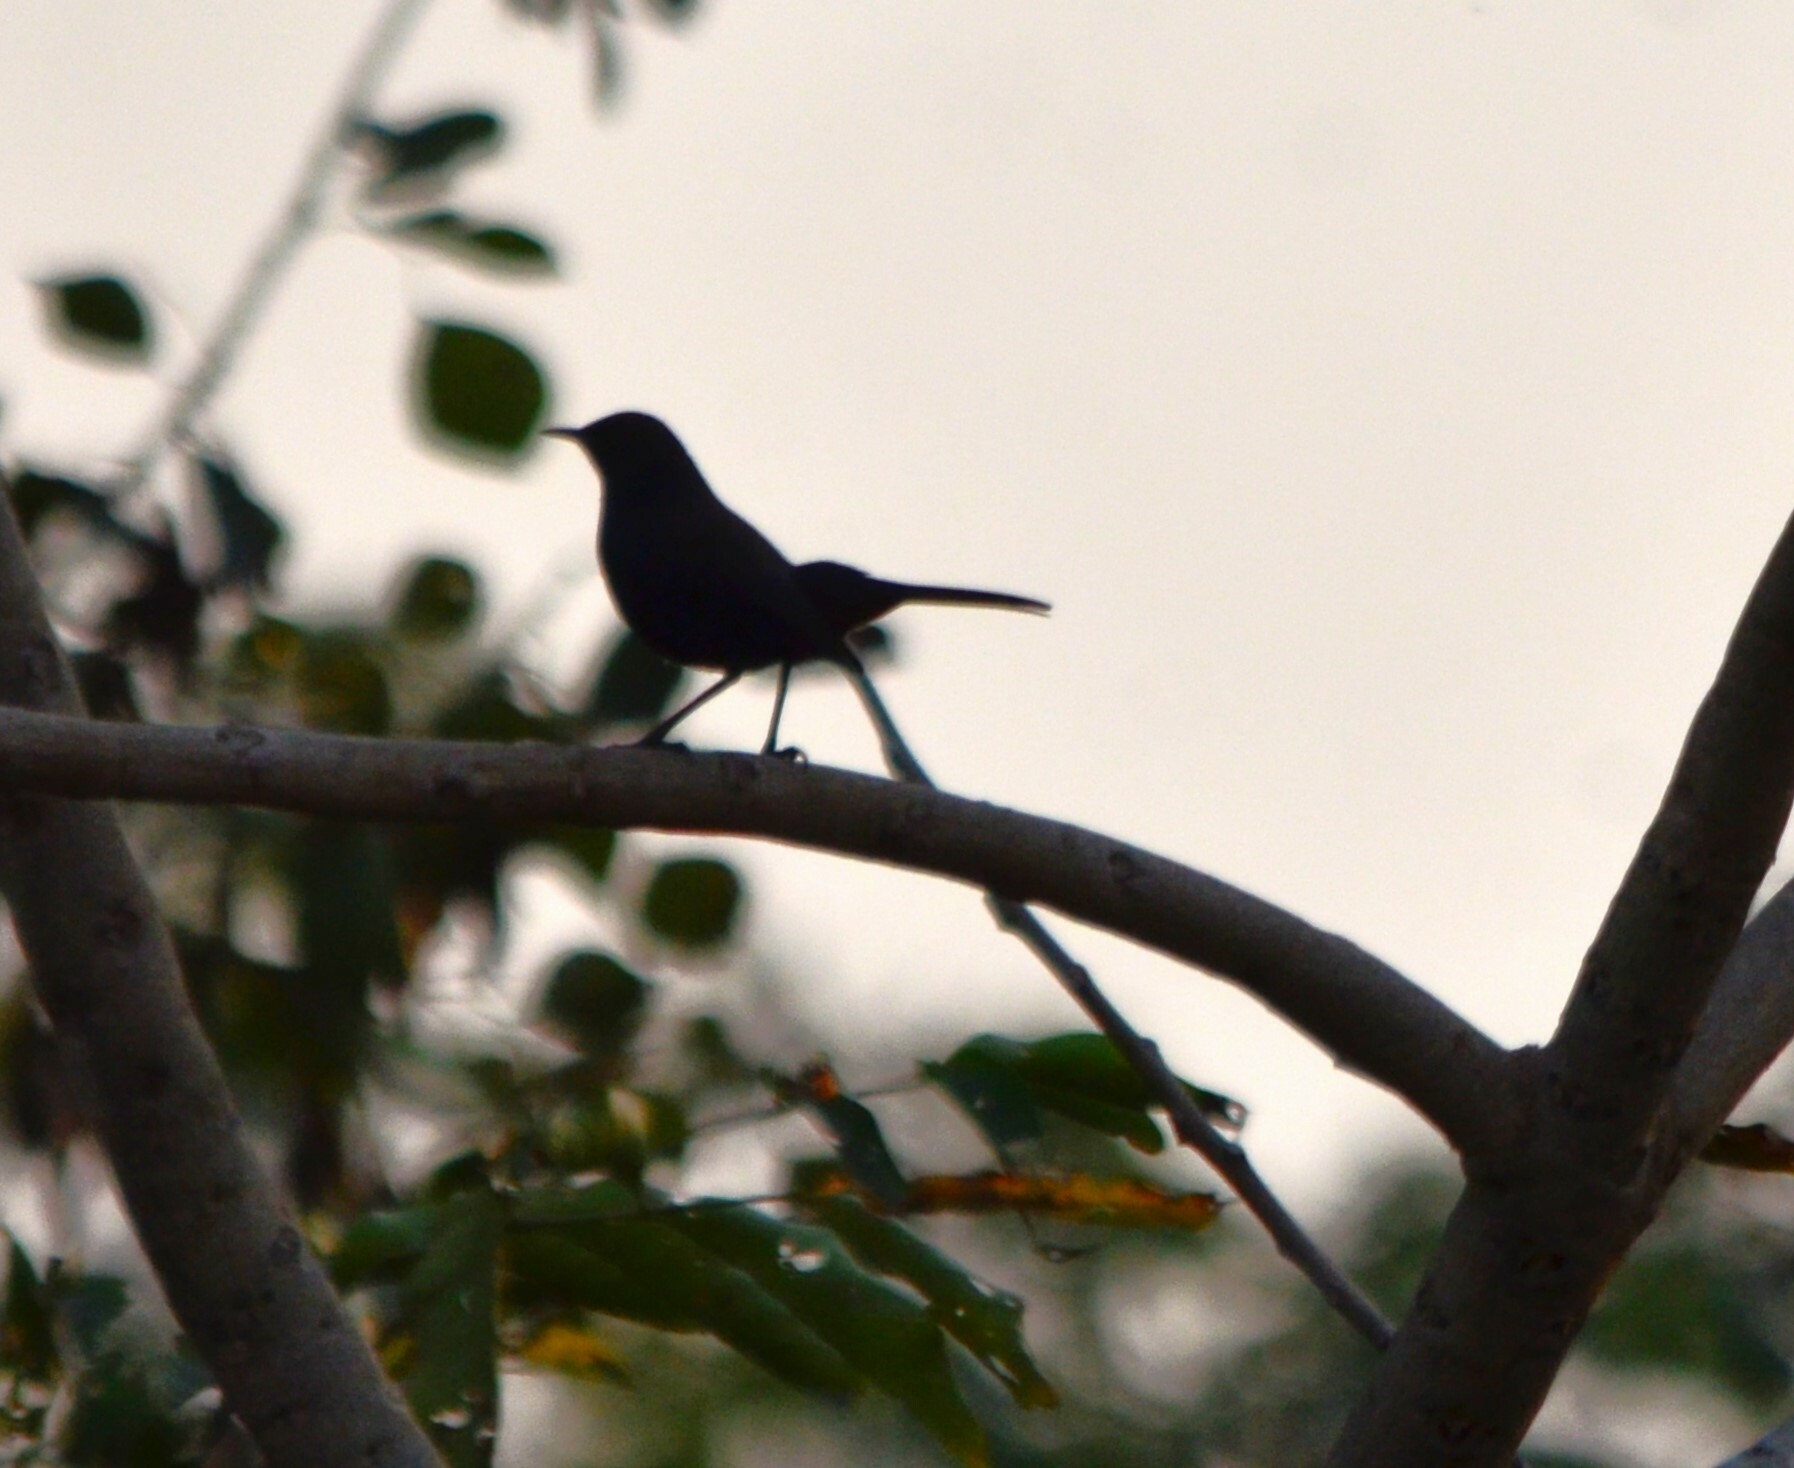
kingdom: Animalia
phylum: Chordata
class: Aves
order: Passeriformes
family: Muscicapidae
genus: Saxicoloides
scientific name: Saxicoloides fulicatus
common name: Indian robin
